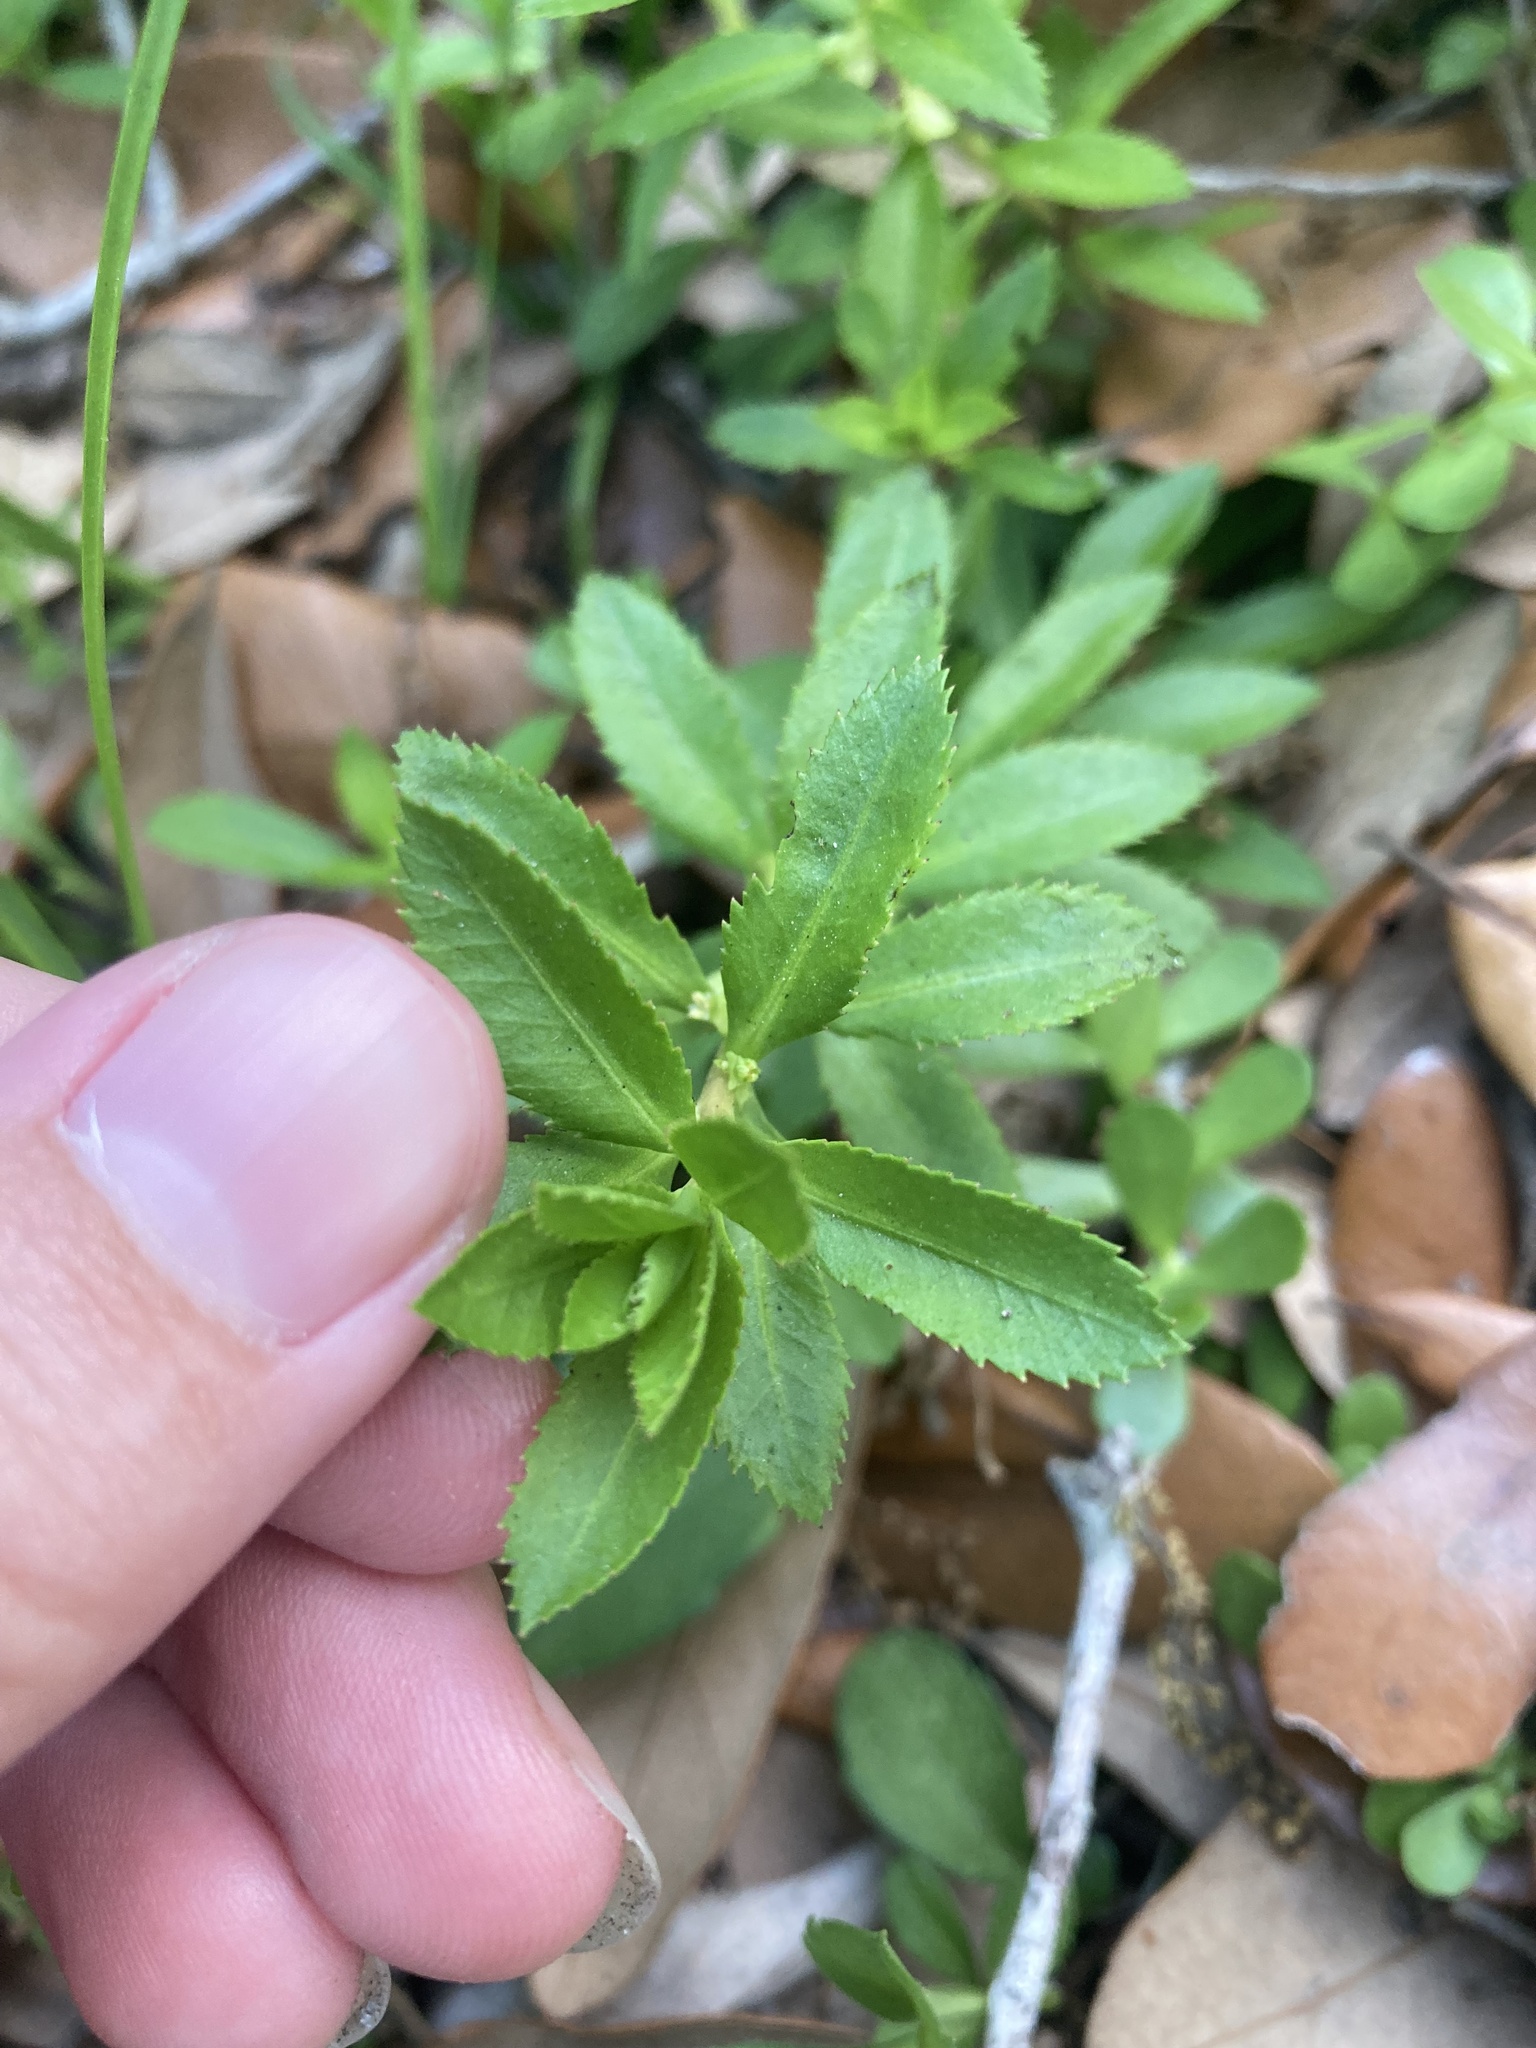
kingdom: Plantae
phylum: Tracheophyta
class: Magnoliopsida
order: Saxifragales
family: Haloragaceae
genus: Proserpinaca
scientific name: Proserpinaca palustris
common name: Marsh mermaidweed
